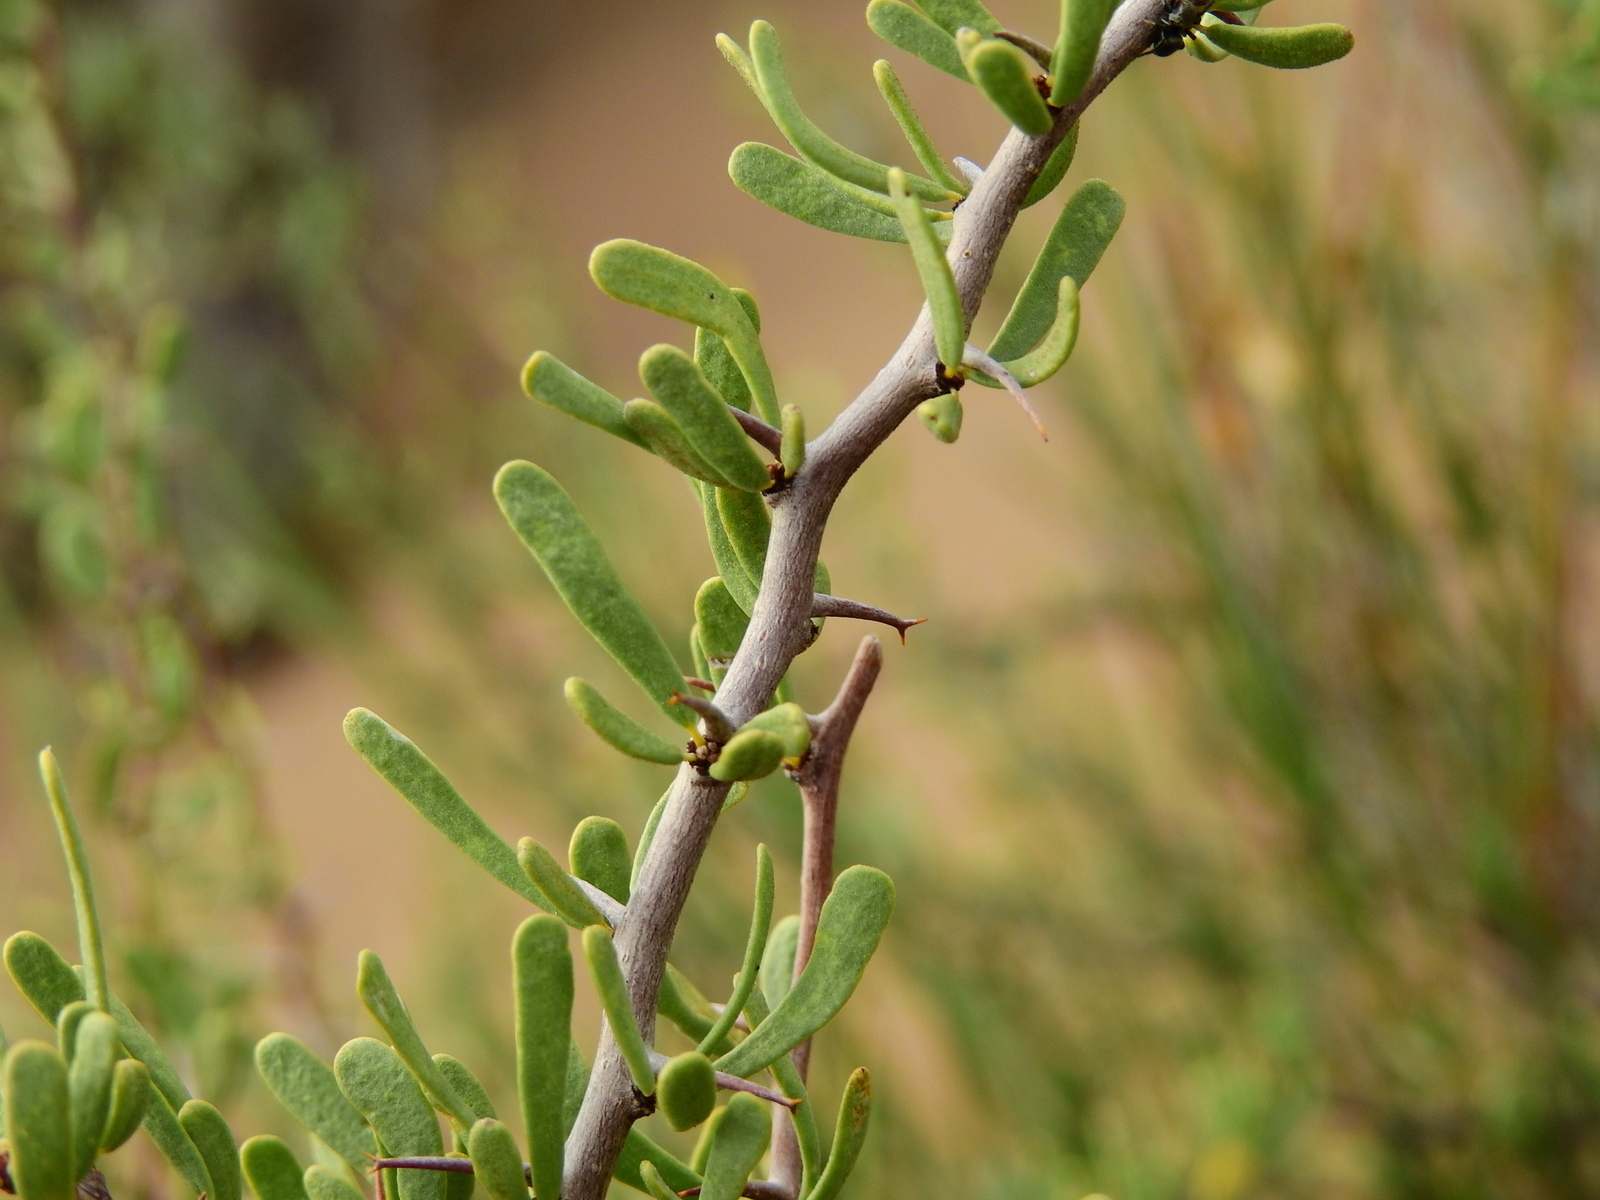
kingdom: Plantae
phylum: Tracheophyta
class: Magnoliopsida
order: Caryophyllales
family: Nyctaginaceae
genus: Bougainvillea
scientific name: Bougainvillea spinosa
